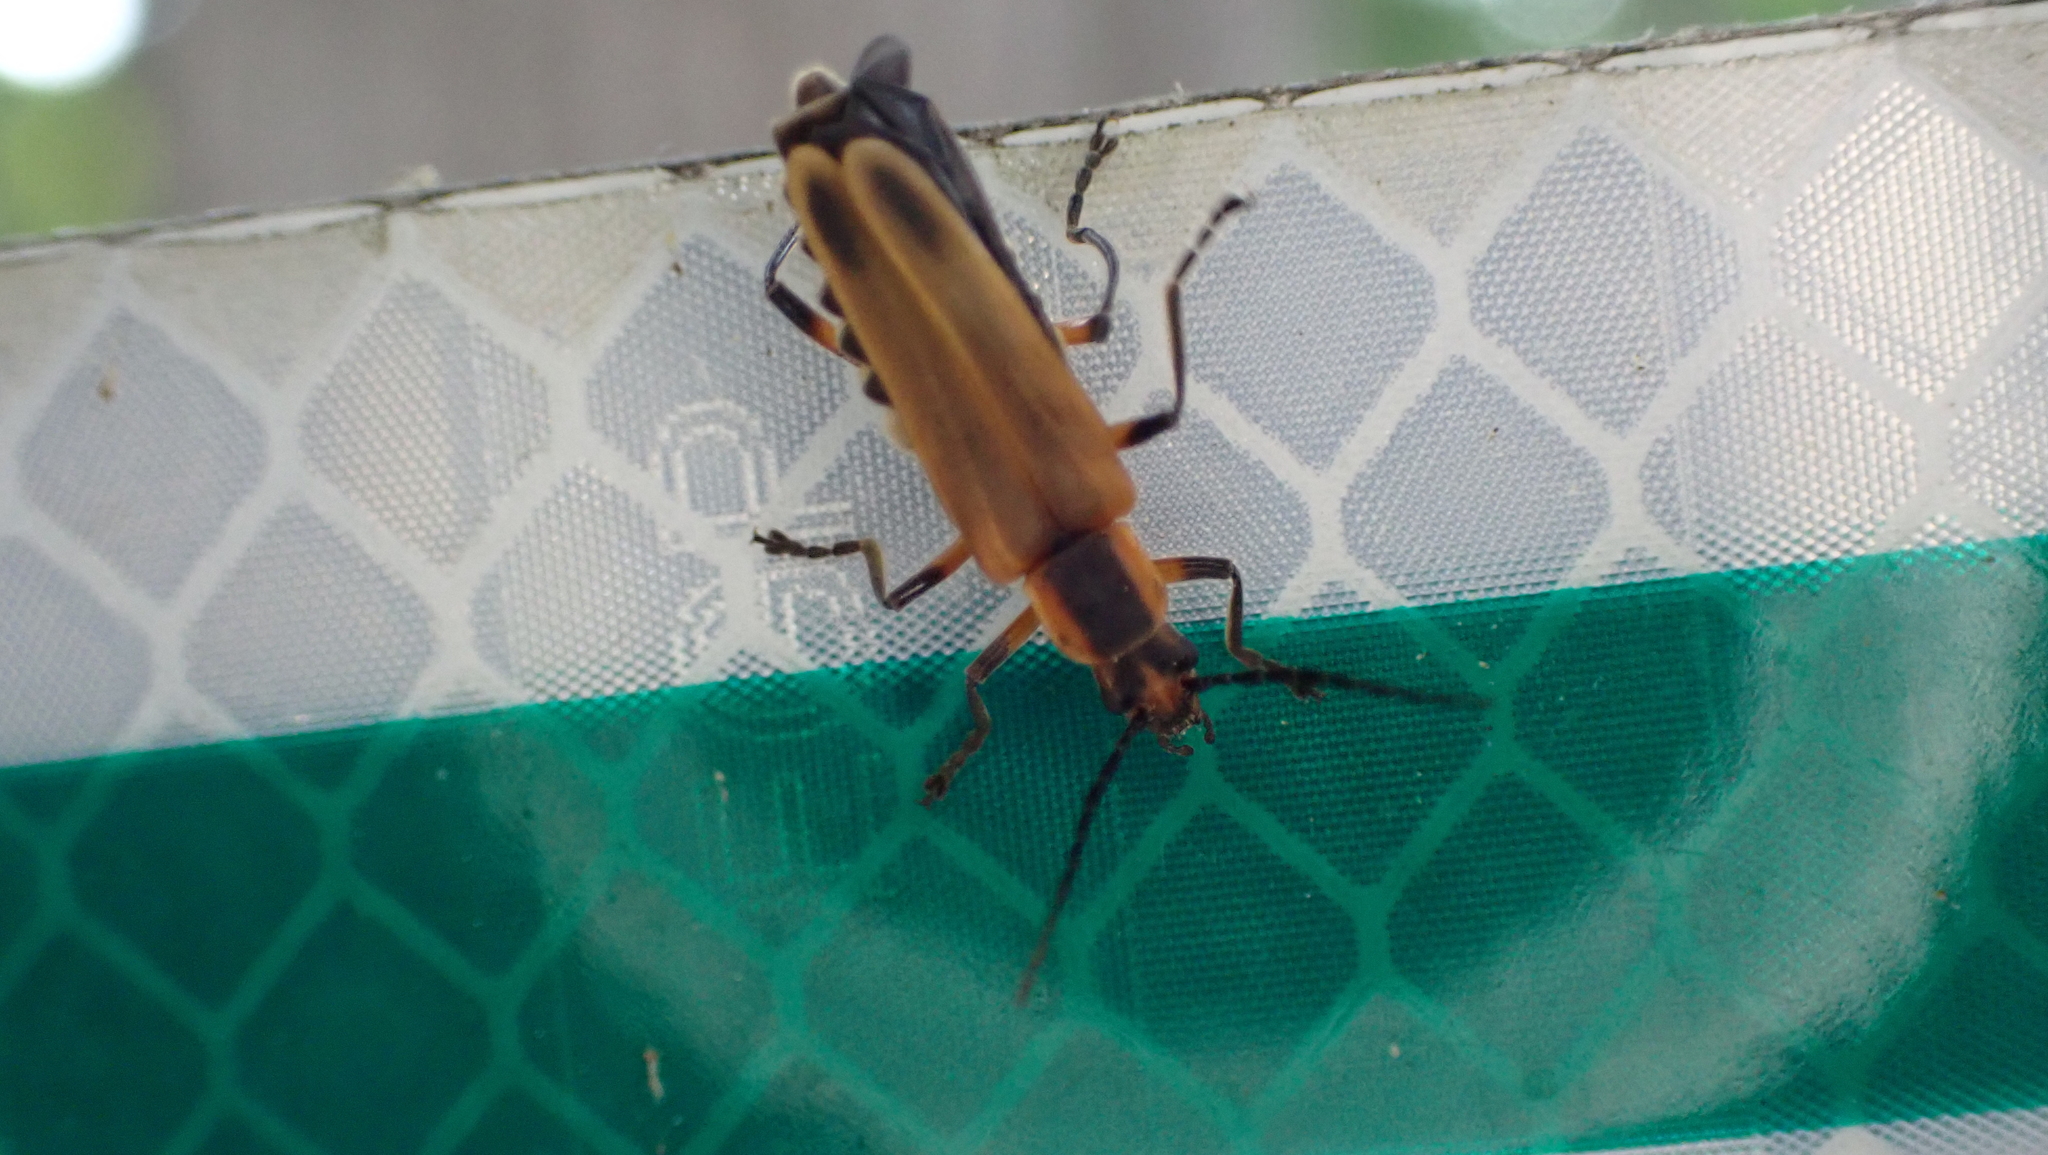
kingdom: Animalia
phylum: Arthropoda
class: Insecta
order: Coleoptera
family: Cantharidae
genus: Chauliognathus
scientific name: Chauliognathus marginatus
